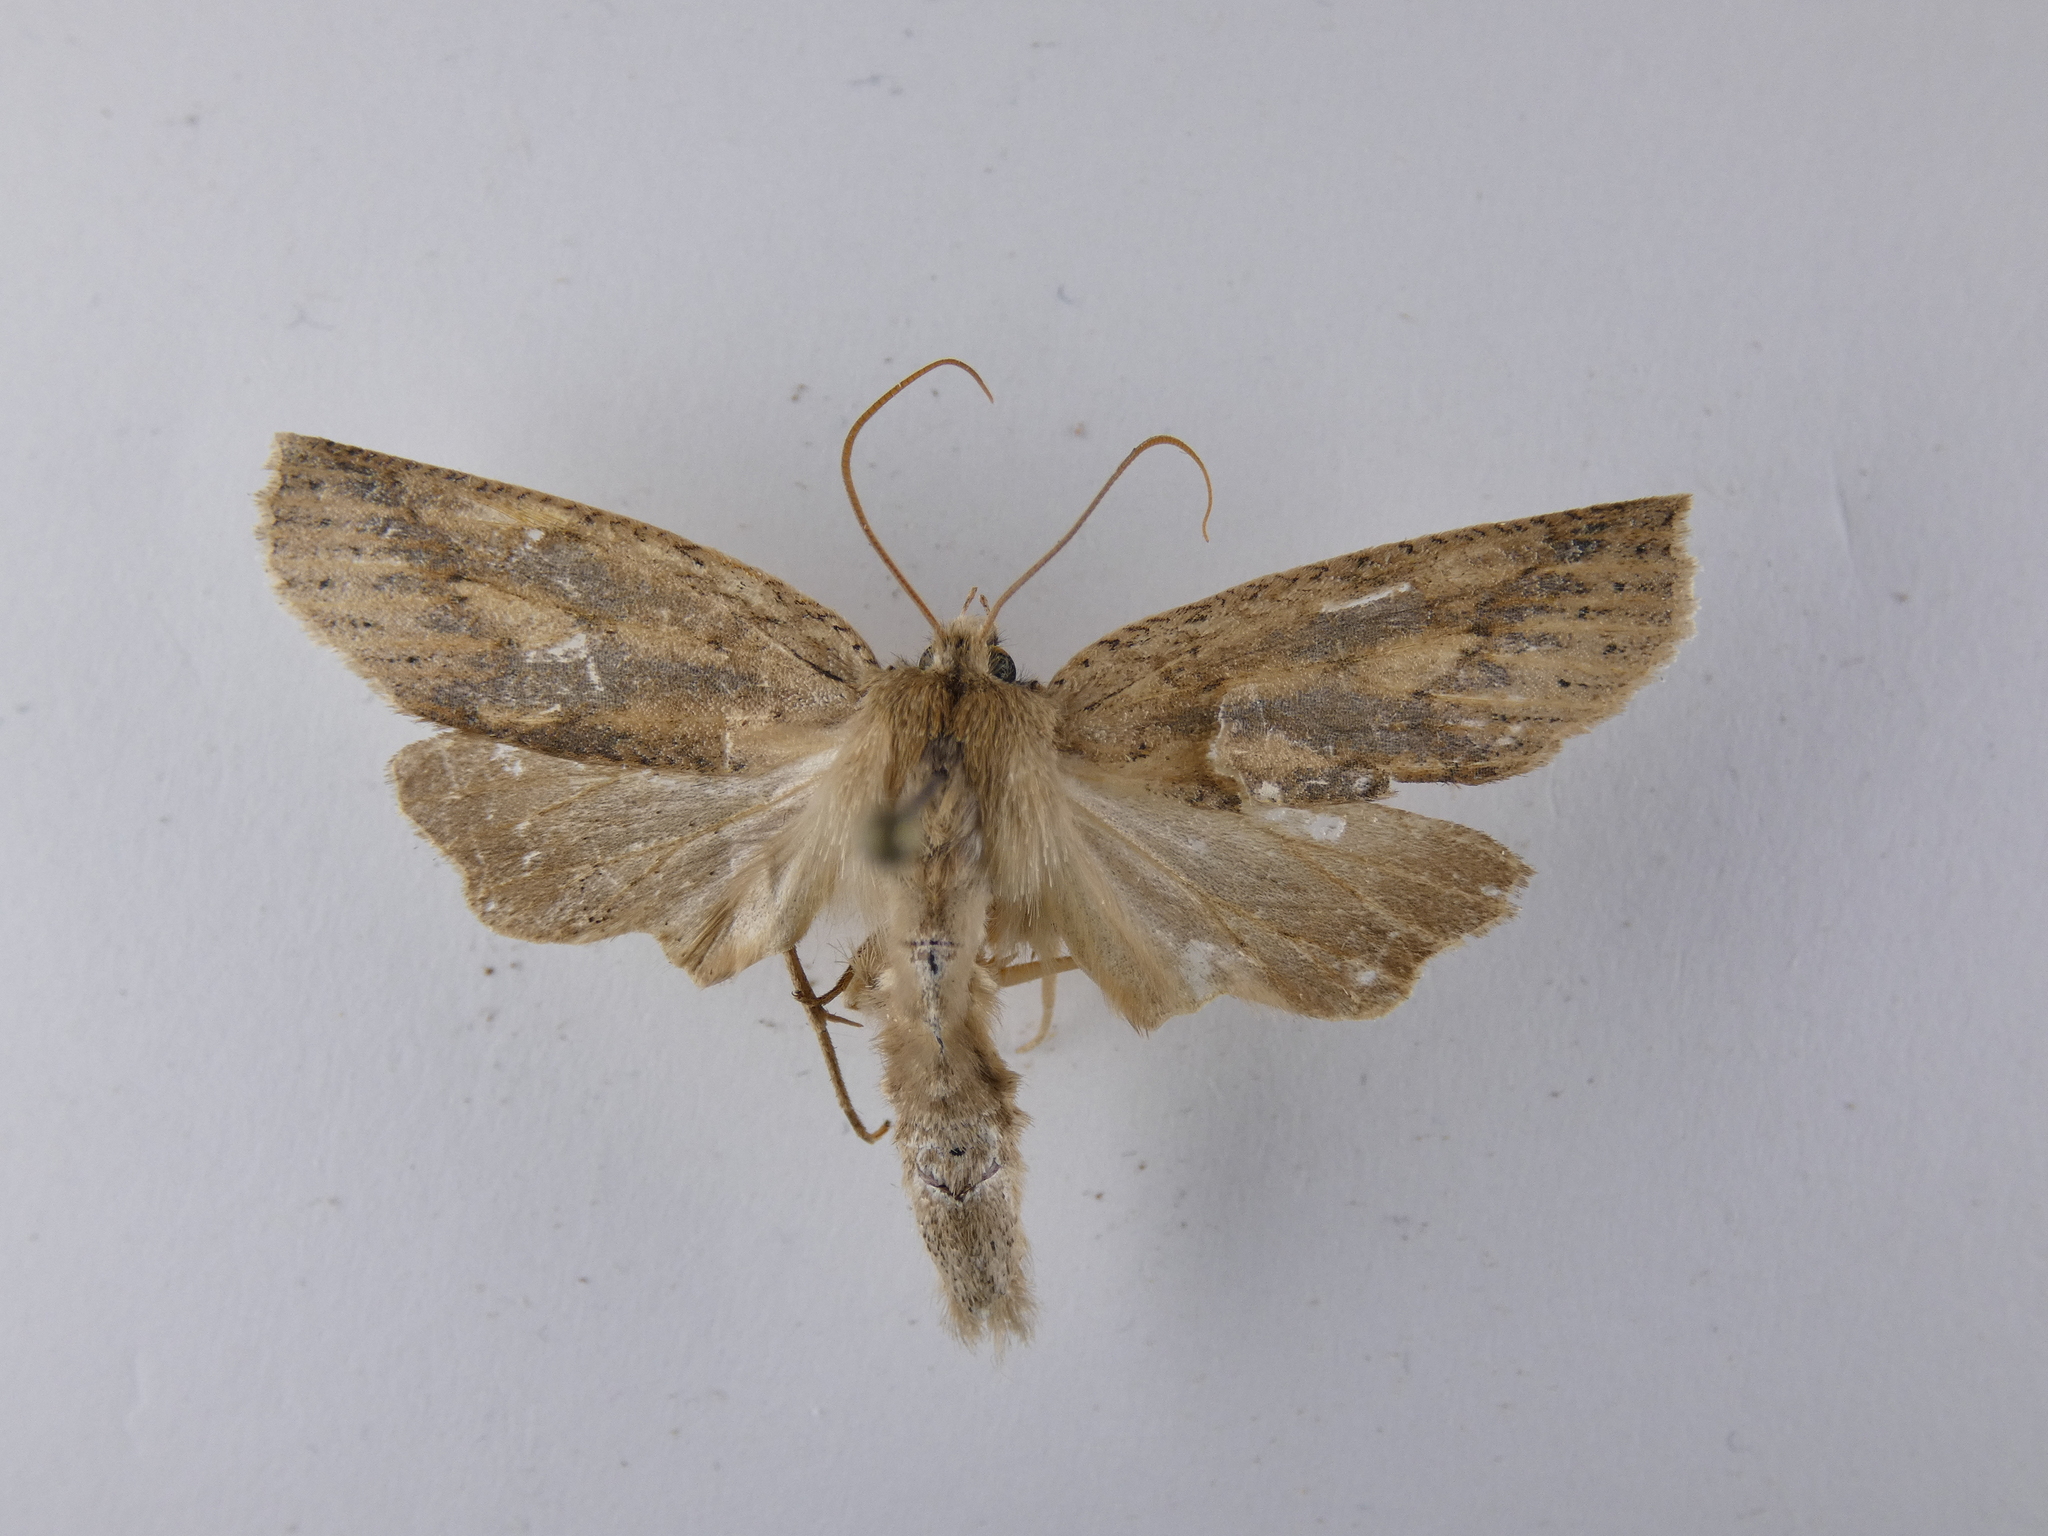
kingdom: Animalia
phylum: Arthropoda
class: Insecta
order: Lepidoptera
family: Geometridae
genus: Declana
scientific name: Declana leptomera
